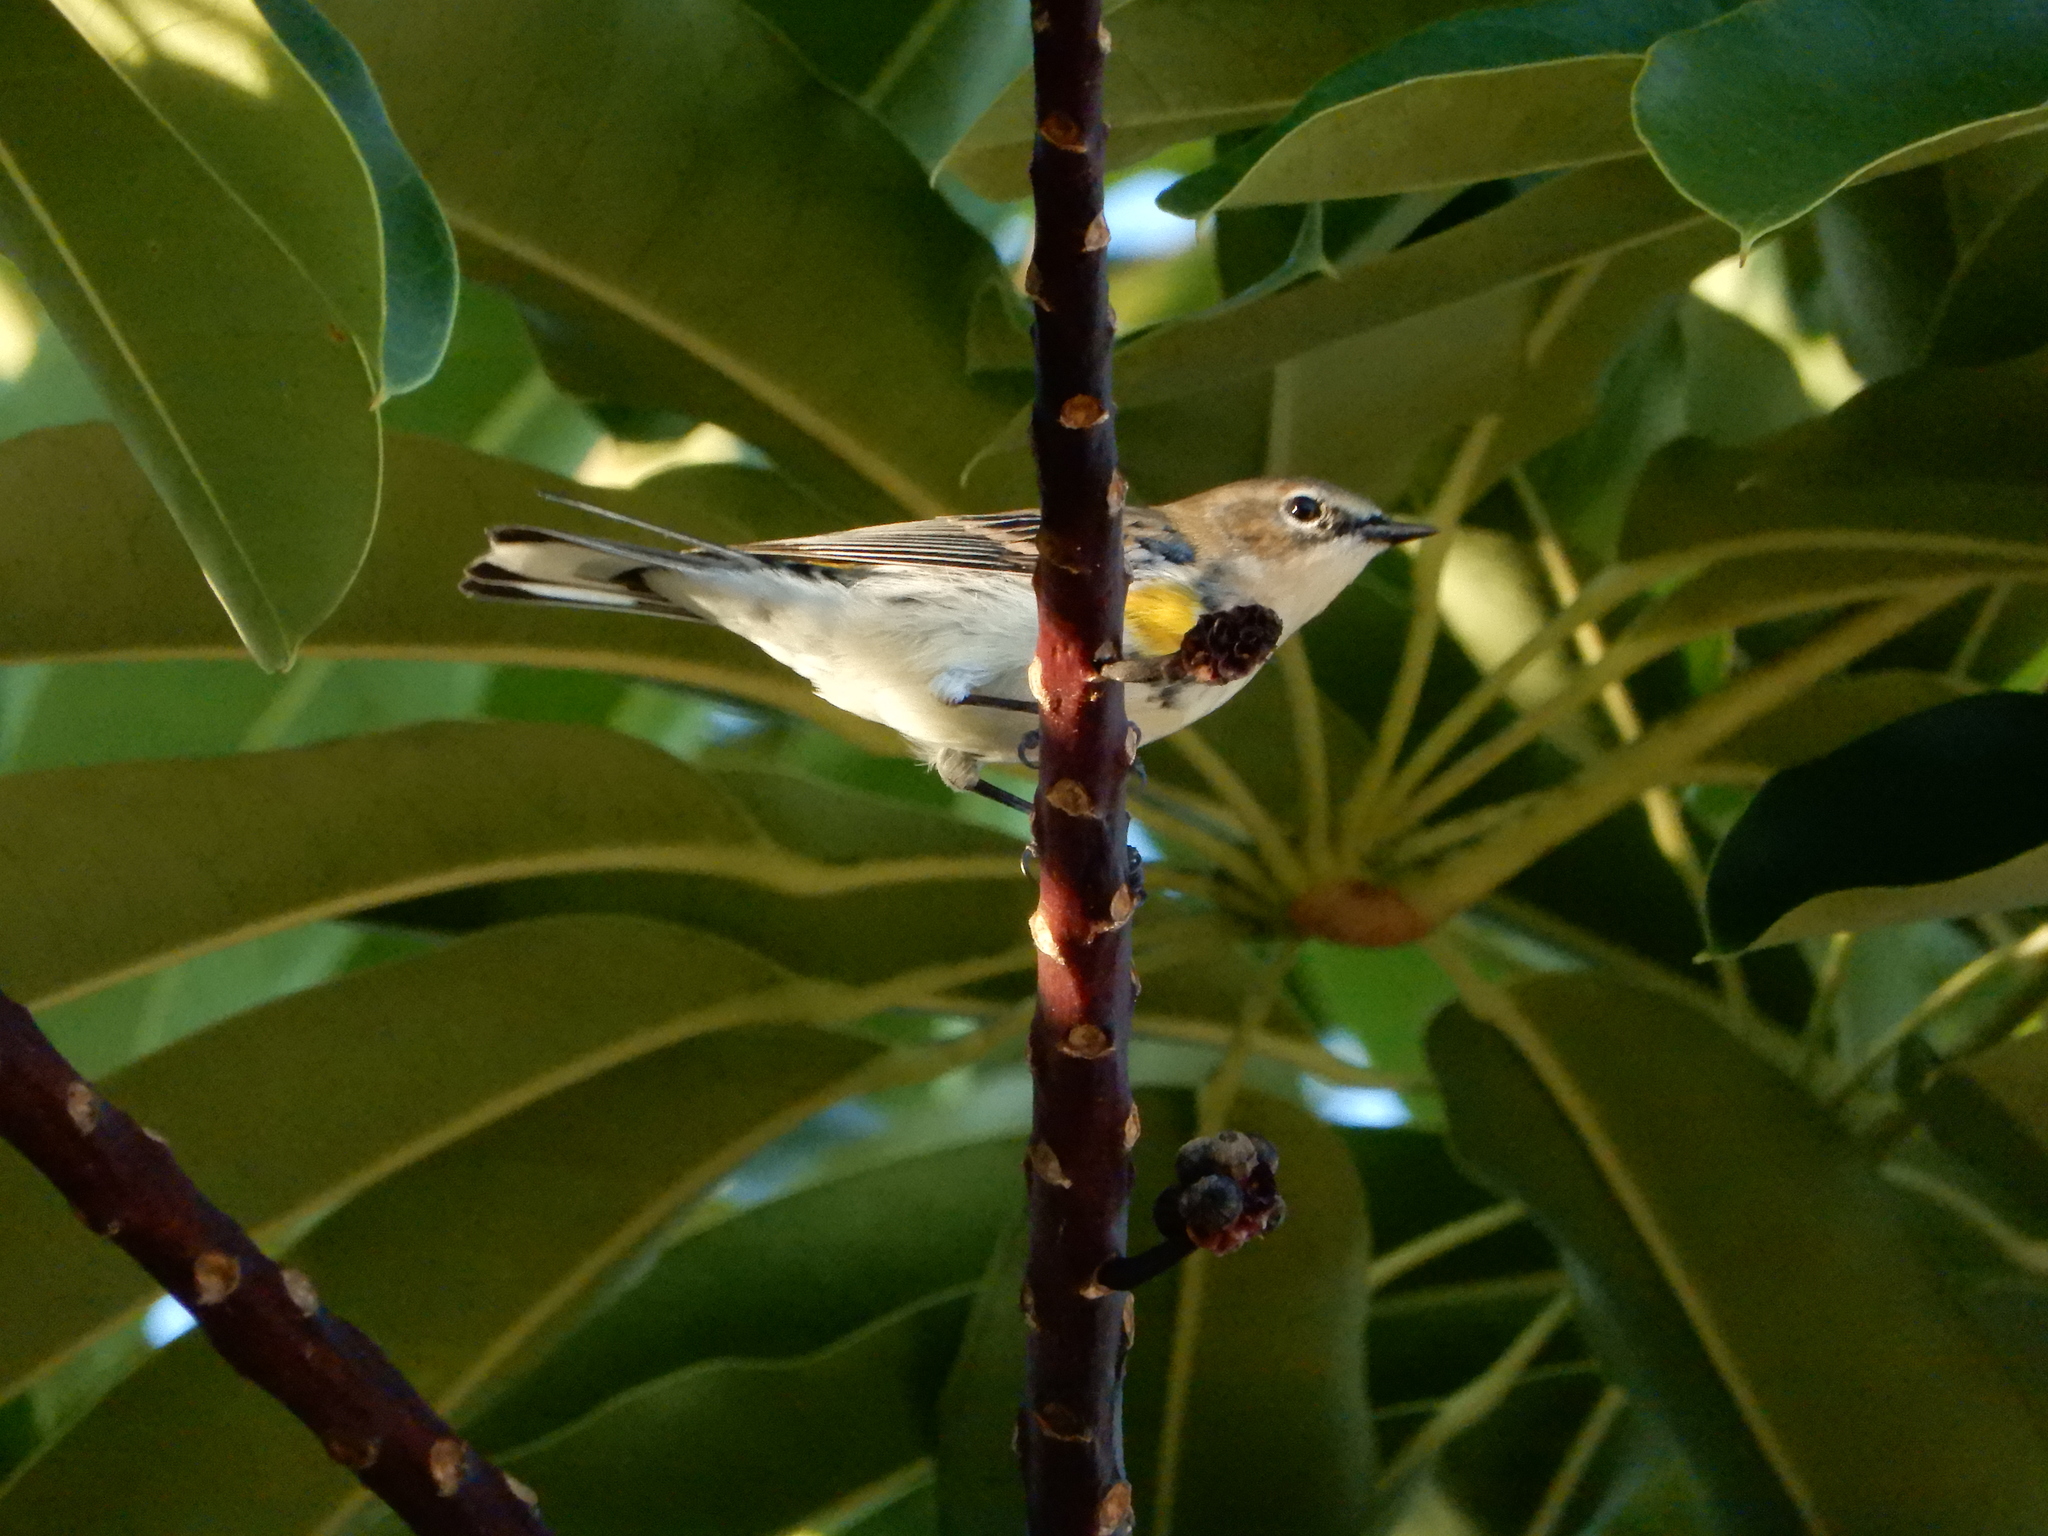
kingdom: Animalia
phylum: Chordata
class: Aves
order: Passeriformes
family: Parulidae
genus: Setophaga
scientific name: Setophaga coronata
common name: Myrtle warbler
